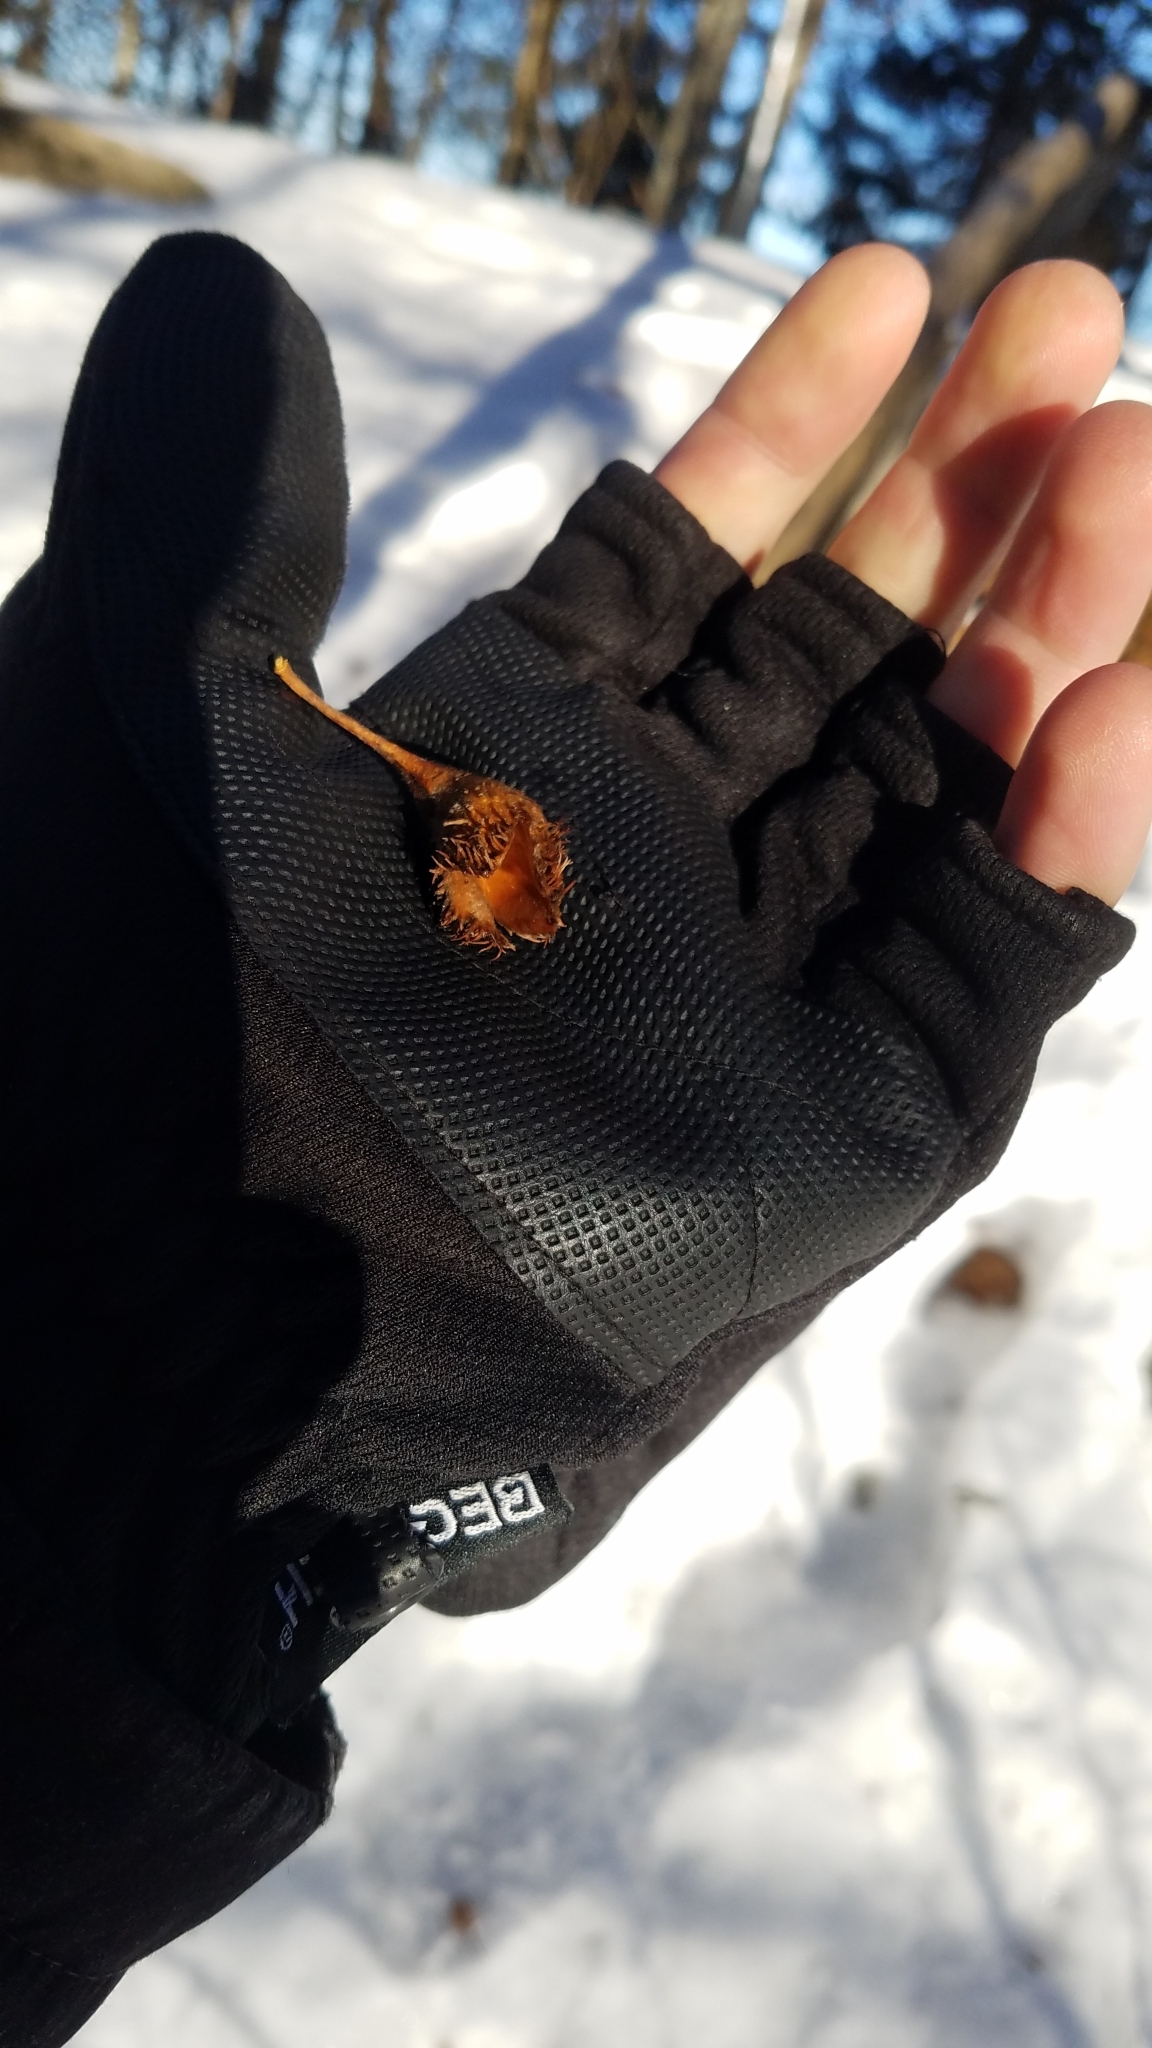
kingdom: Plantae
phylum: Tracheophyta
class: Magnoliopsida
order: Fagales
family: Fagaceae
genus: Fagus
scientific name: Fagus sylvatica
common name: Beech
